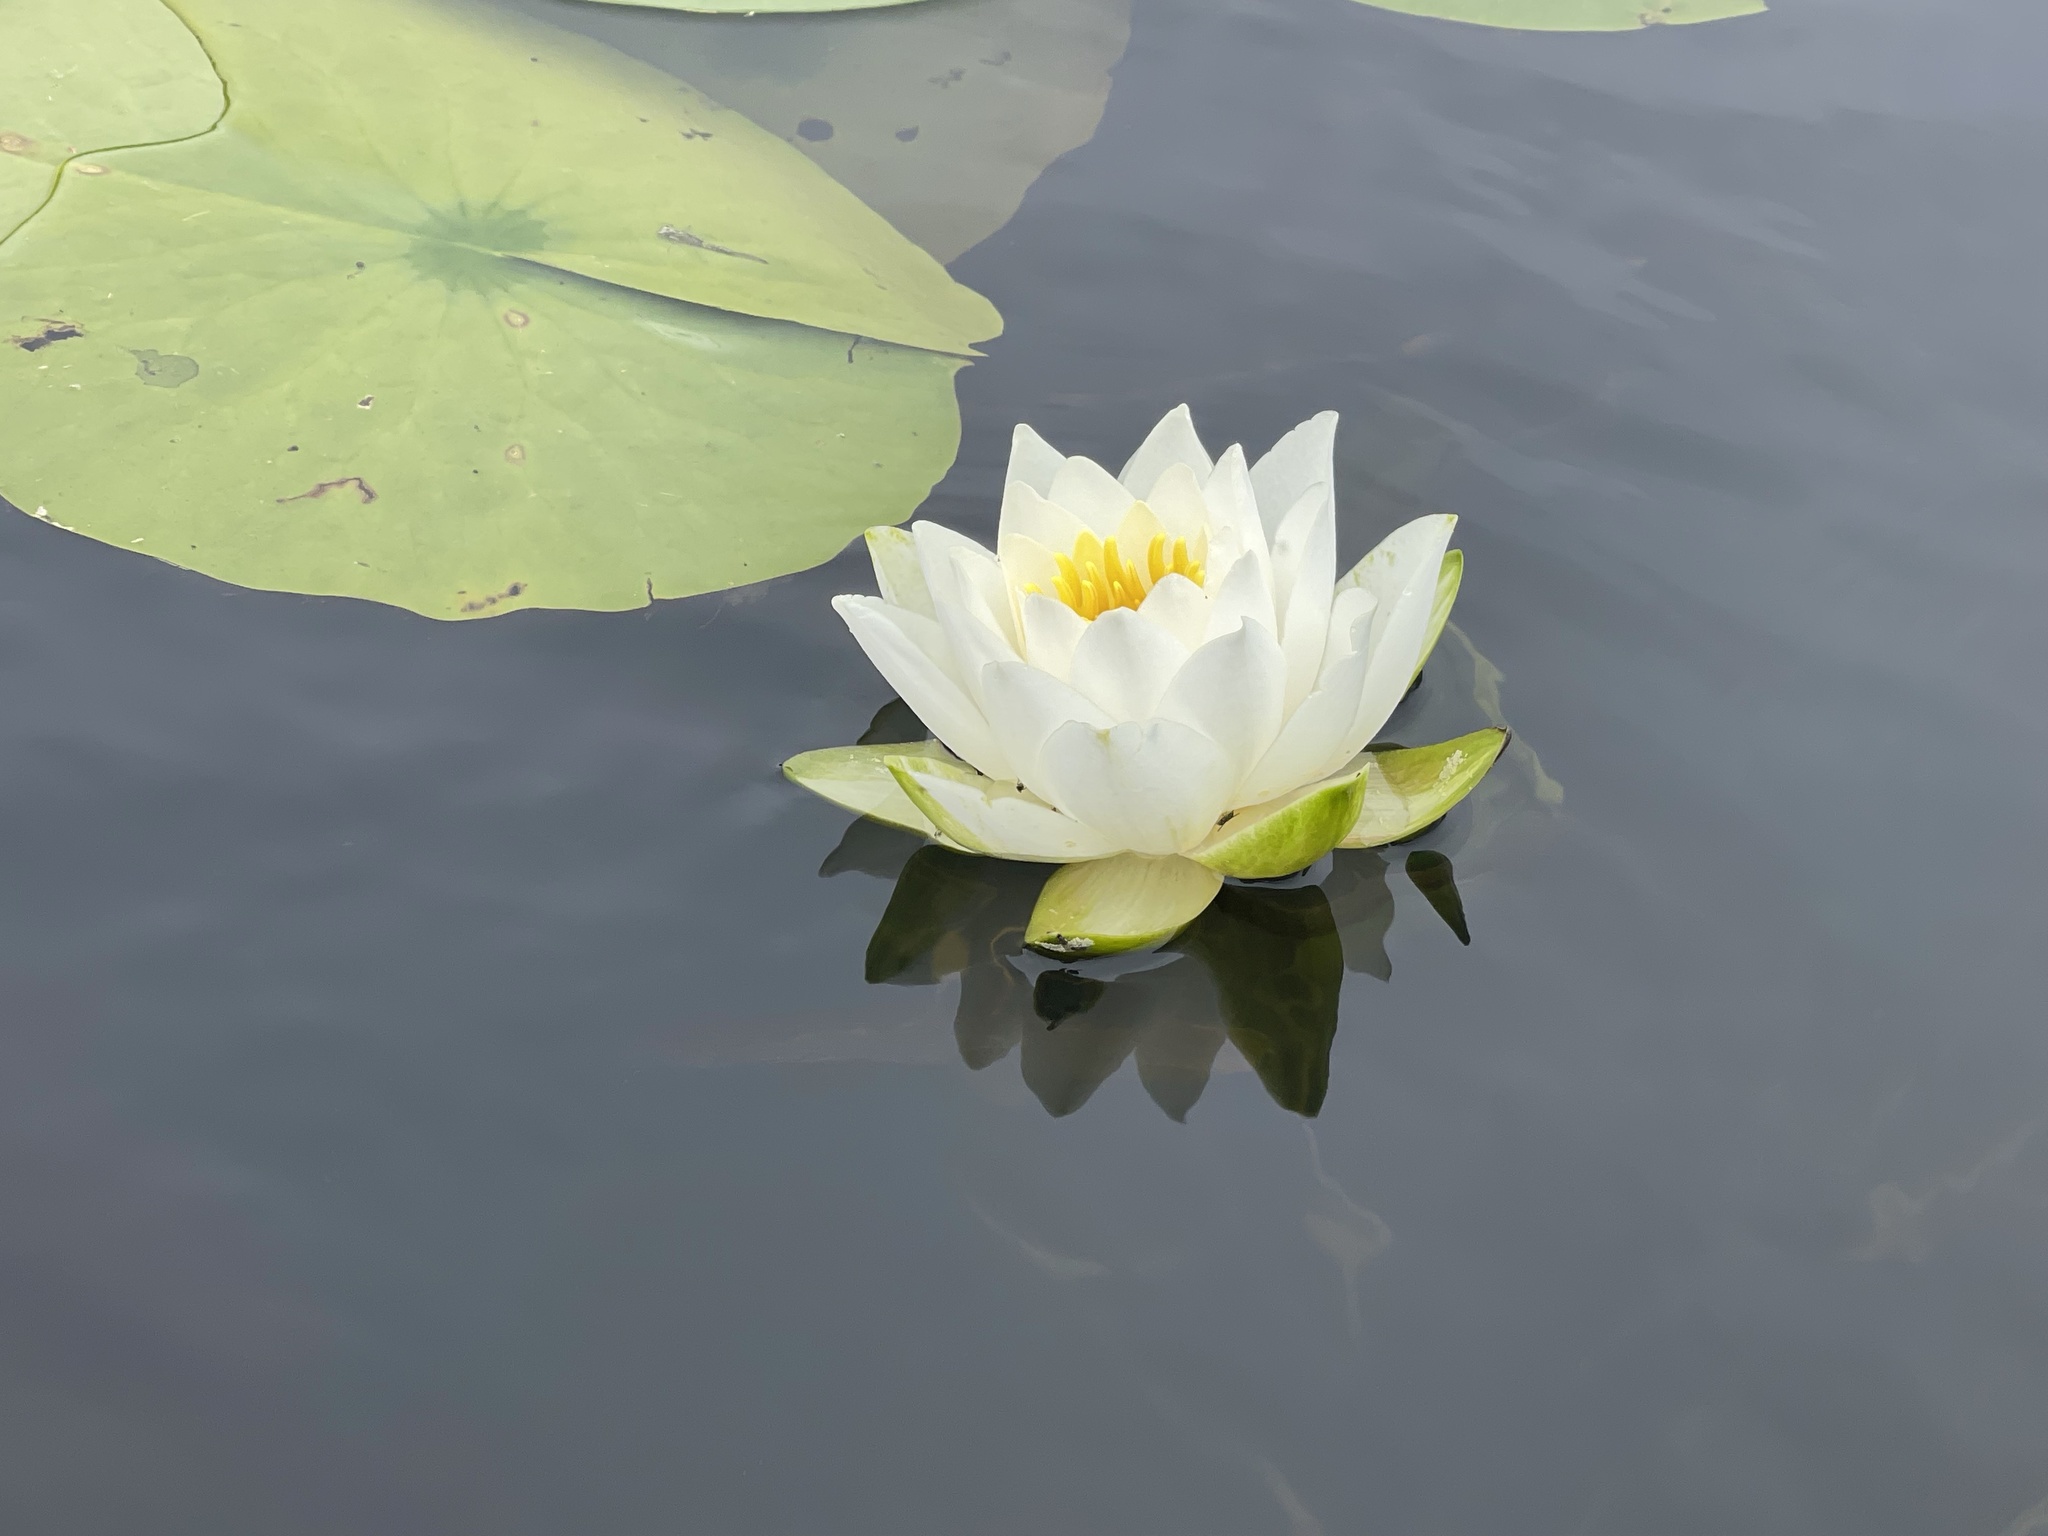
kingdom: Plantae
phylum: Tracheophyta
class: Magnoliopsida
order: Nymphaeales
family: Nymphaeaceae
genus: Nymphaea
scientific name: Nymphaea odorata
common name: Fragrant water-lily
